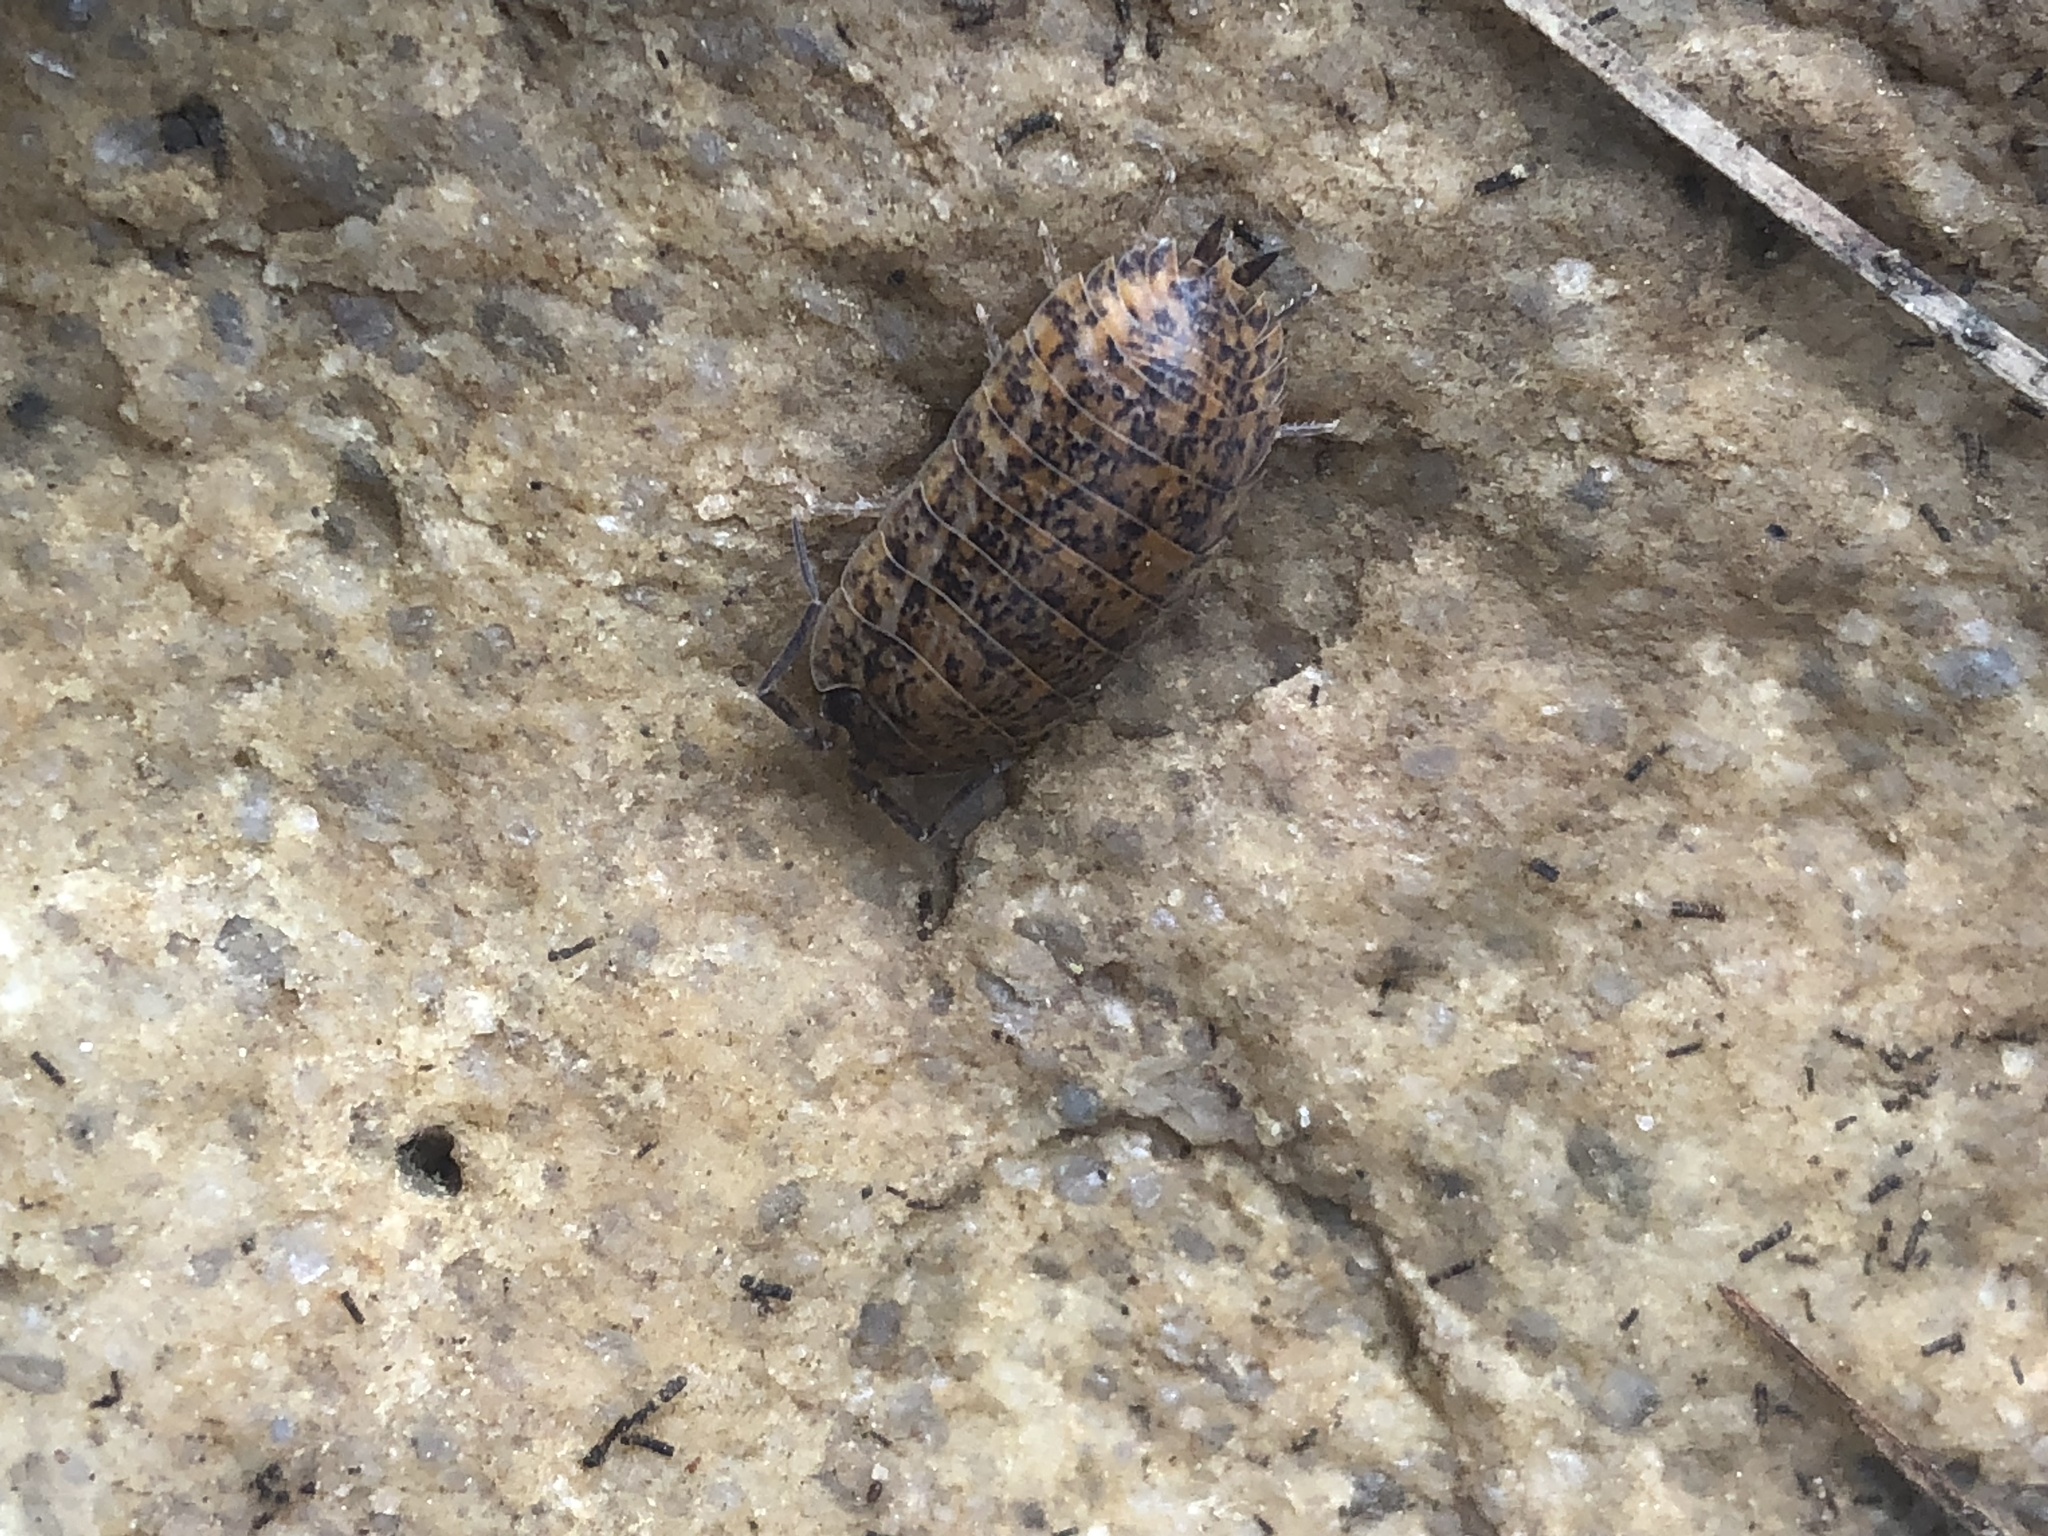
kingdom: Animalia
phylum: Arthropoda
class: Malacostraca
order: Isopoda
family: Trachelipodidae
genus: Trachelipus
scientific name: Trachelipus rathkii
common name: Isopod
